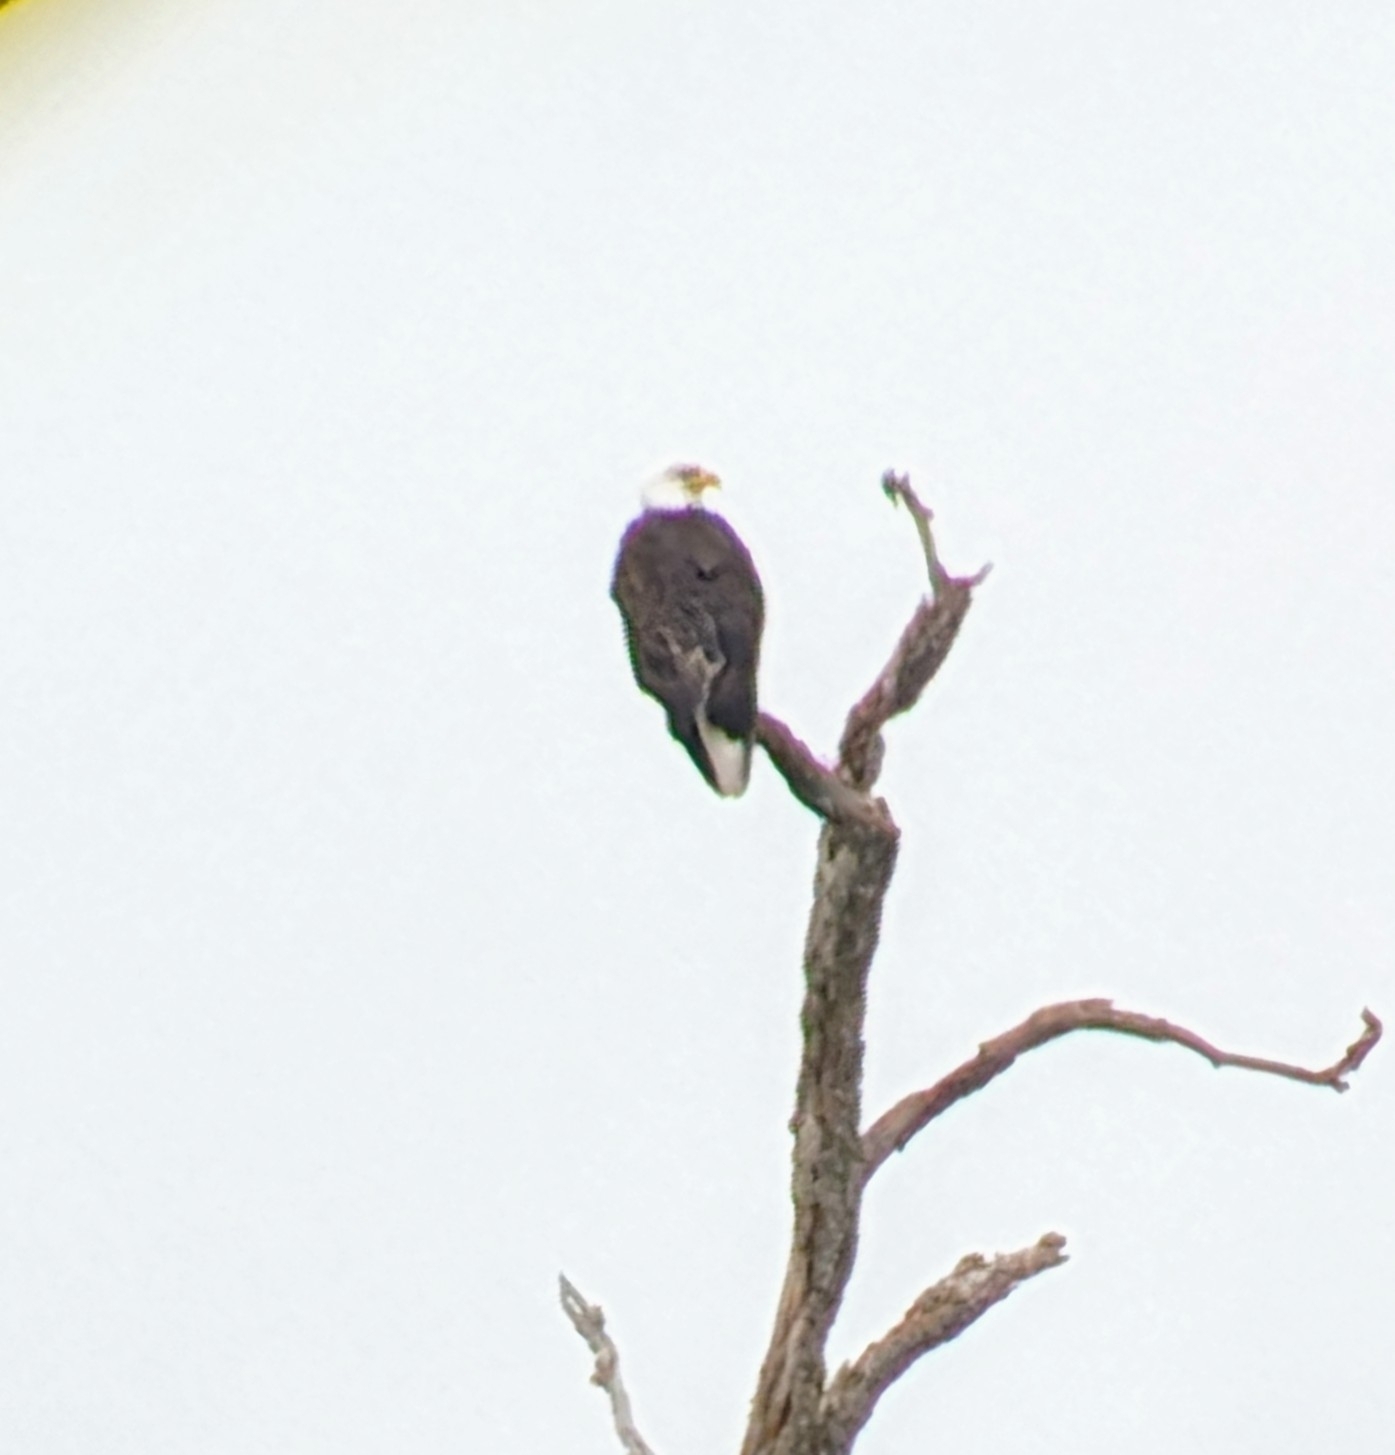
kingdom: Animalia
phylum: Chordata
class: Aves
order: Accipitriformes
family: Accipitridae
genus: Haliaeetus
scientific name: Haliaeetus leucocephalus
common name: Bald eagle
